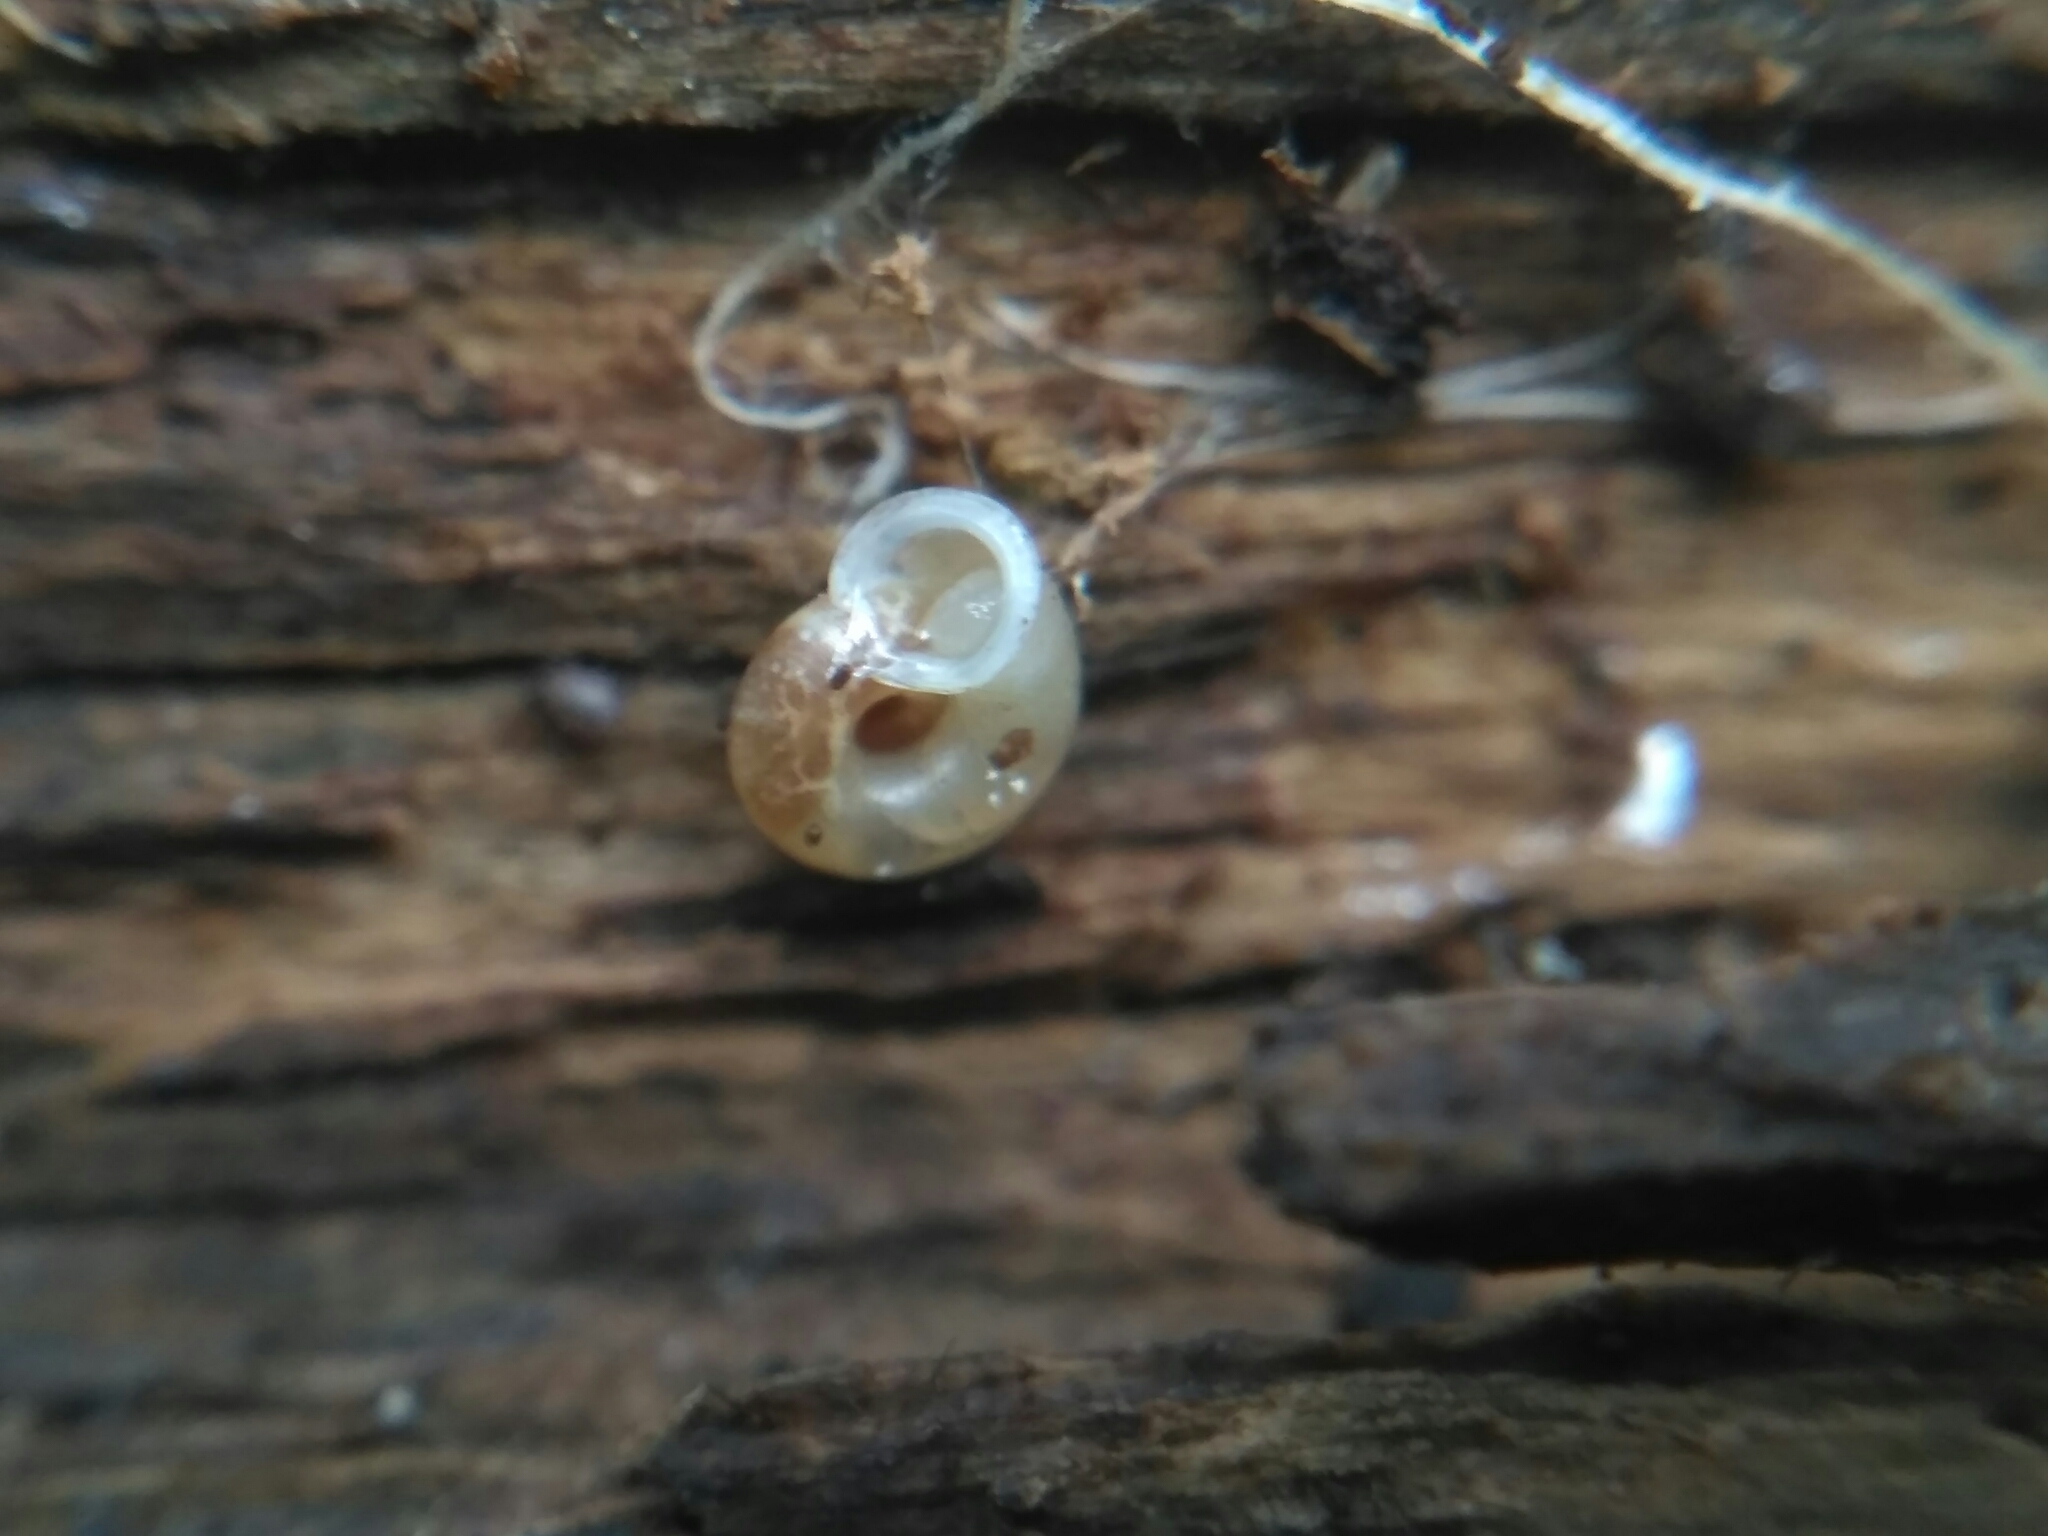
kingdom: Animalia
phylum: Mollusca
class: Gastropoda
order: Stylommatophora
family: Valloniidae
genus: Vallonia
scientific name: Vallonia pulchella
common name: Smooth grass snail
